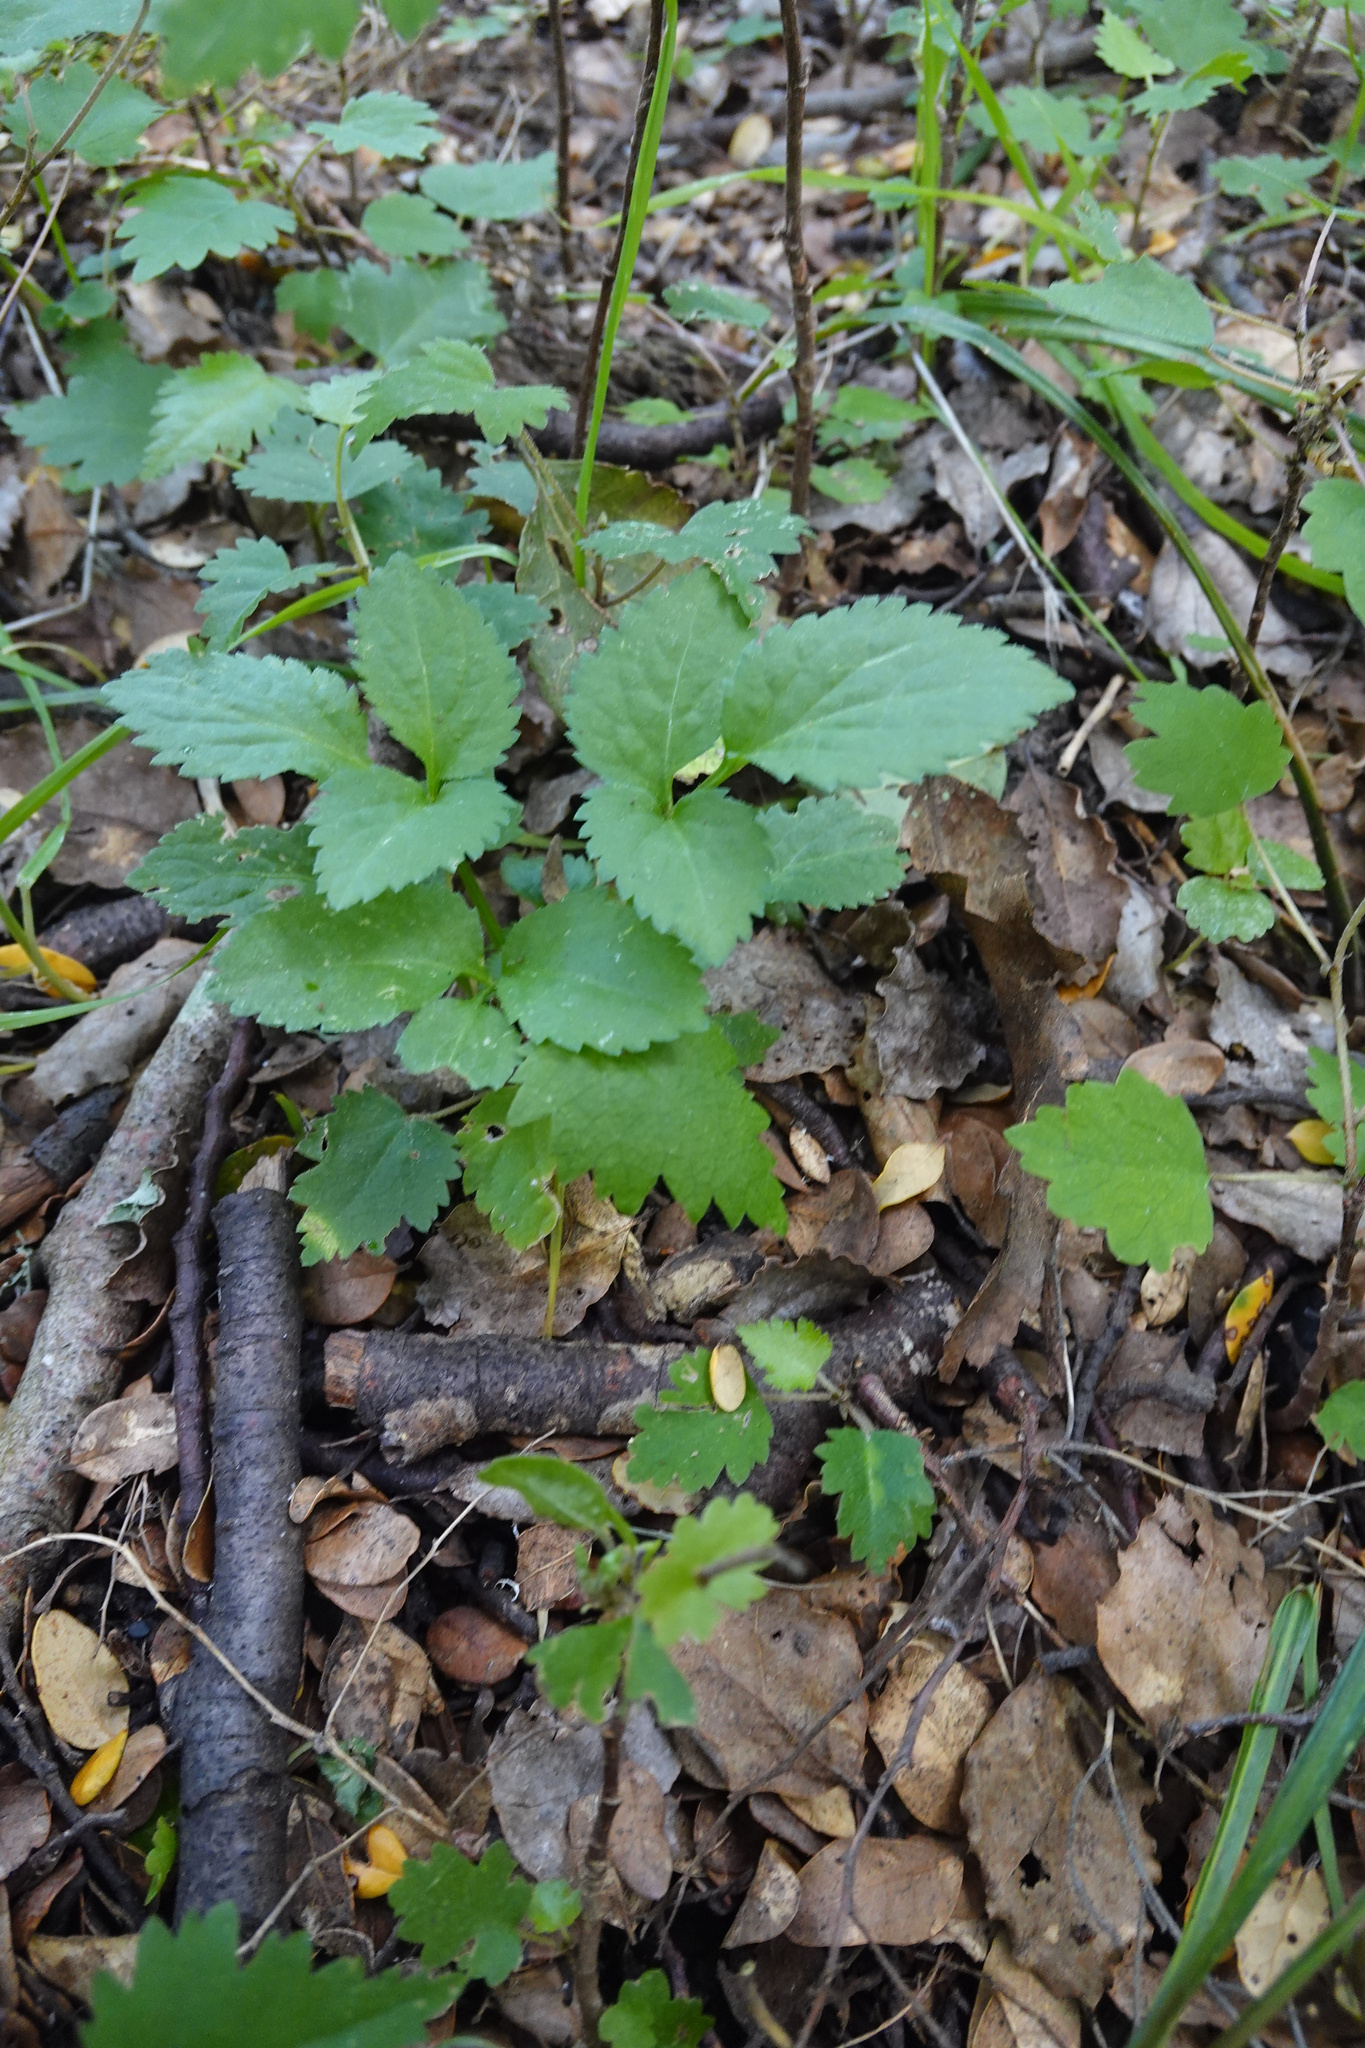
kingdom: Plantae
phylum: Tracheophyta
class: Magnoliopsida
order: Dipsacales
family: Viburnaceae
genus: Sambucus
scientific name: Sambucus nigra
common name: Elder
